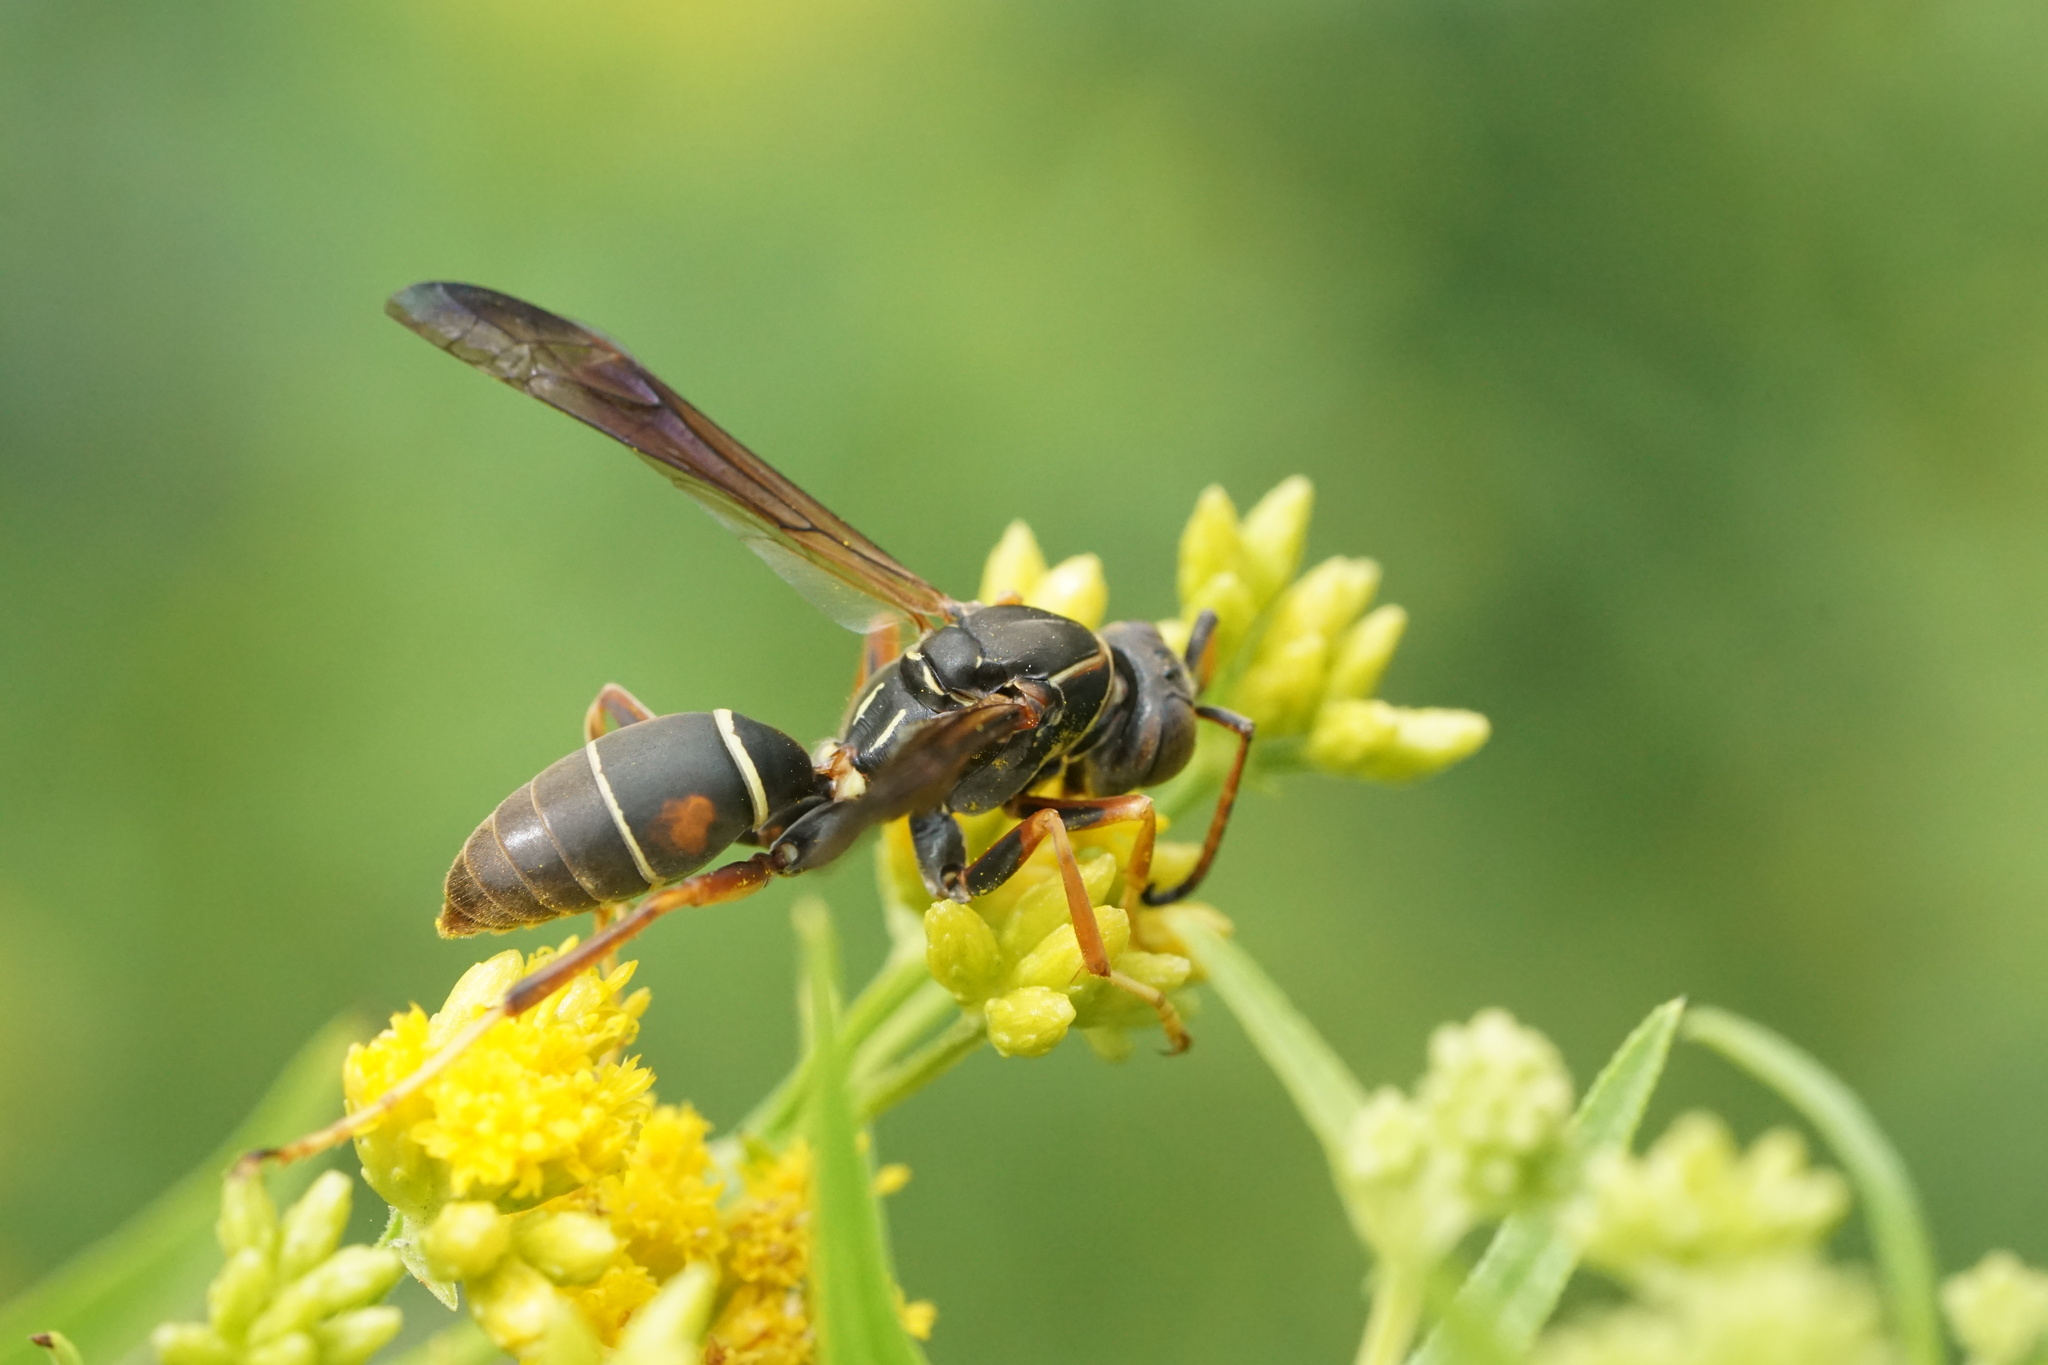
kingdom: Animalia
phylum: Arthropoda
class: Insecta
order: Hymenoptera
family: Eumenidae
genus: Polistes
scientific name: Polistes fuscatus
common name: Dark paper wasp
